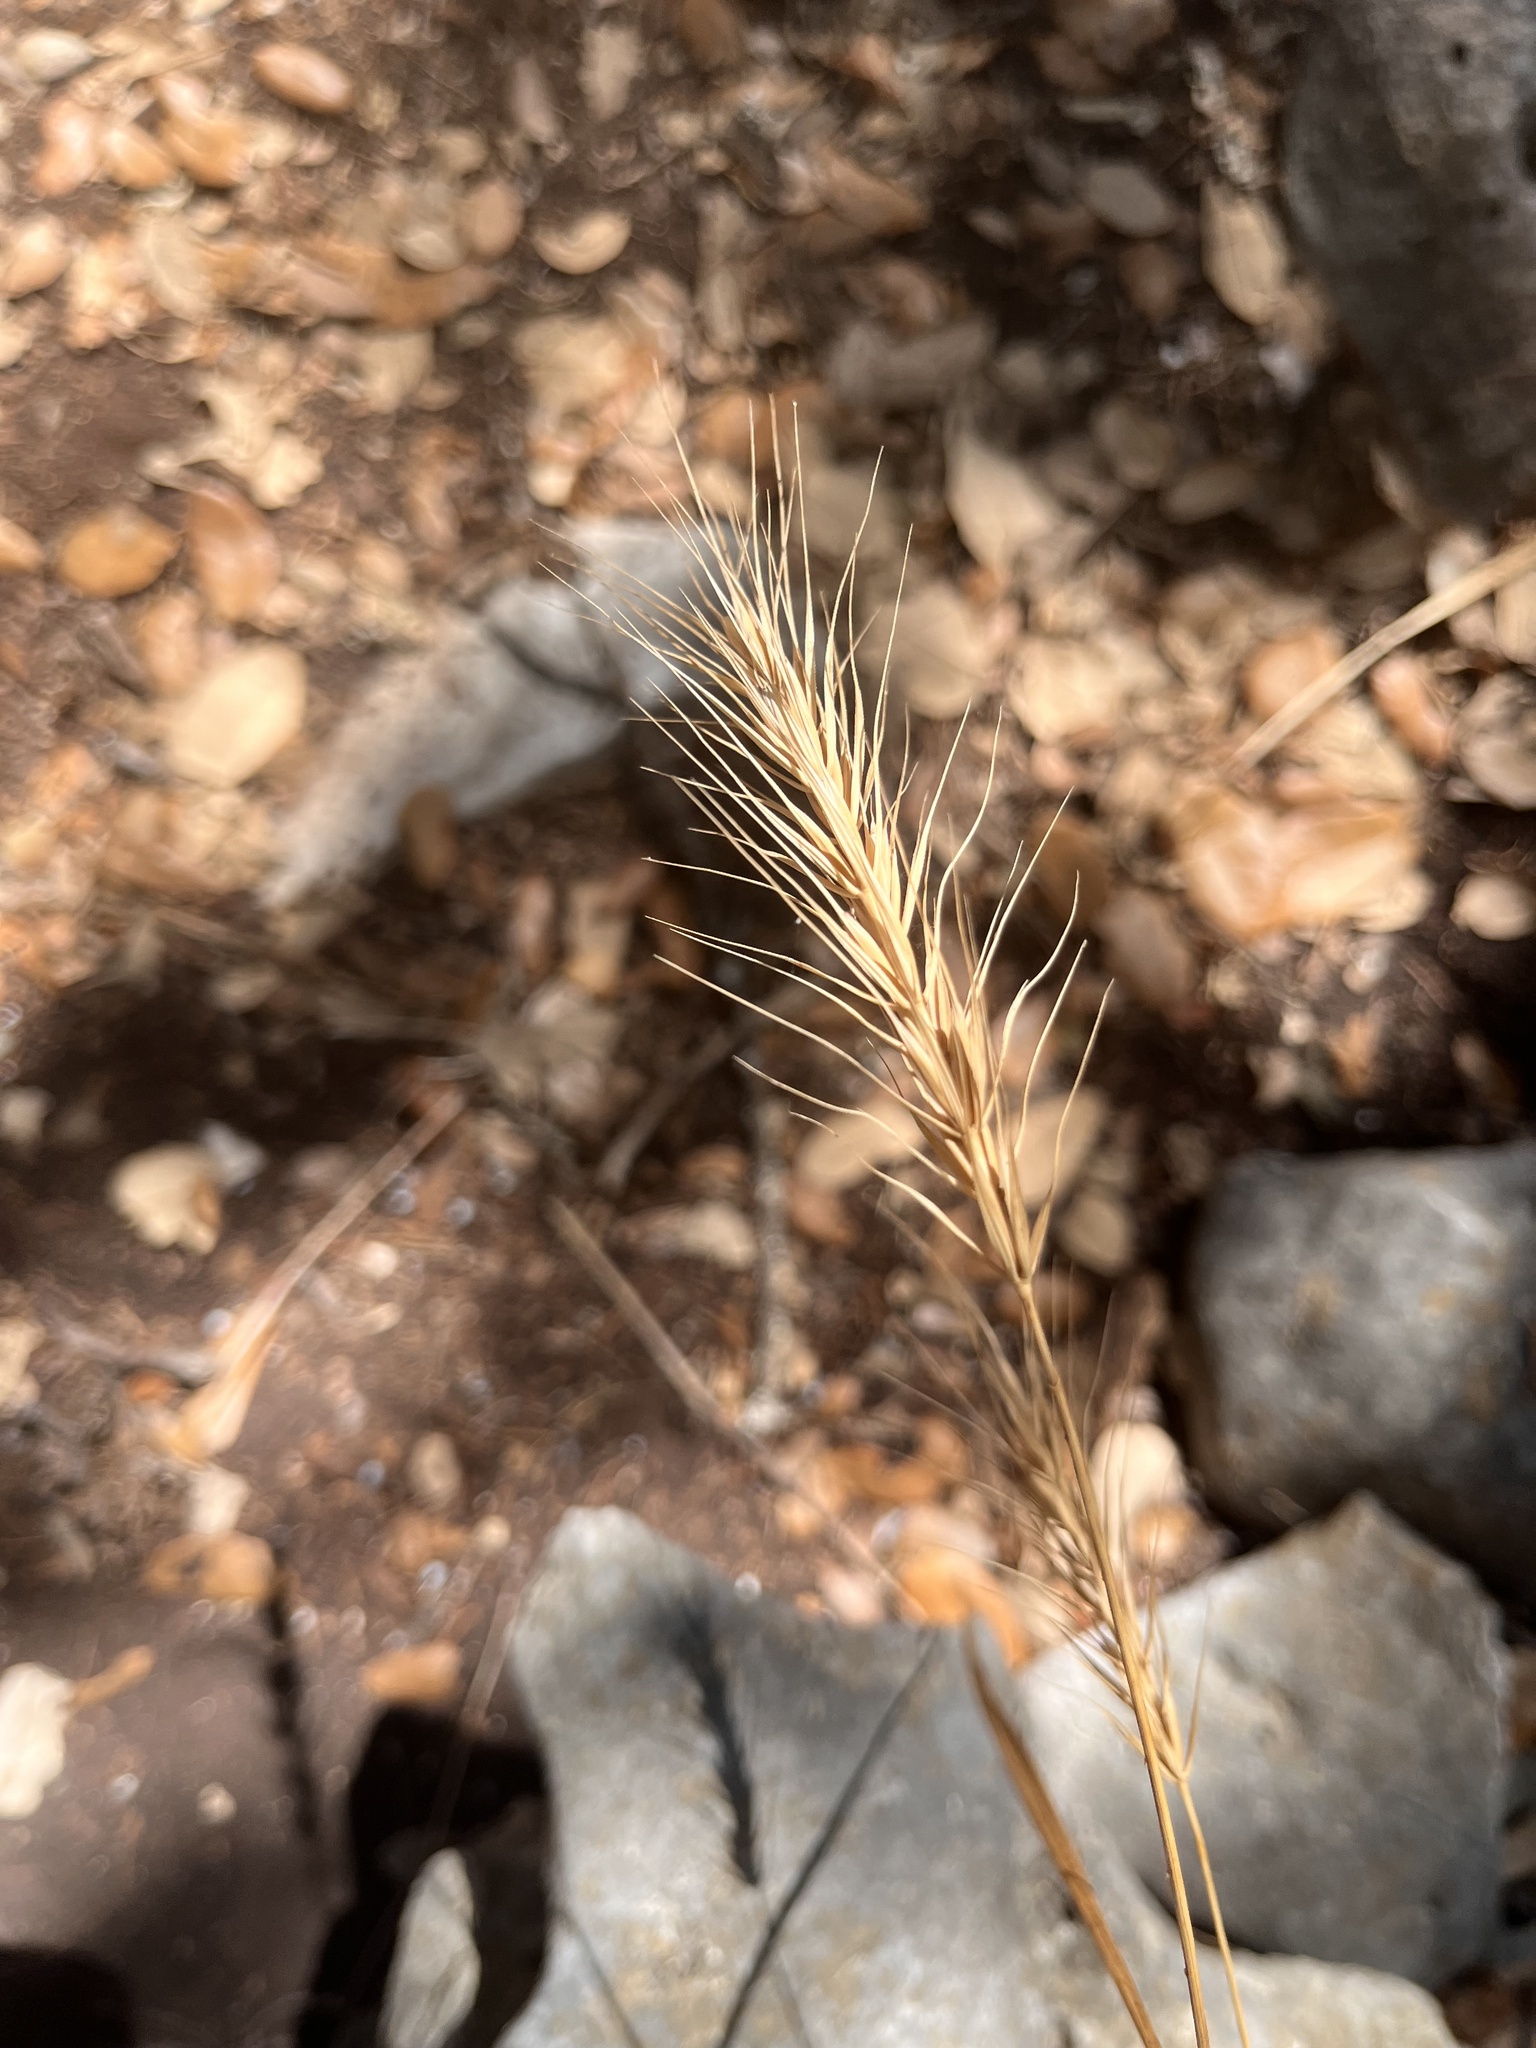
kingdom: Plantae
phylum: Tracheophyta
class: Liliopsida
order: Poales
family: Poaceae
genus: Elymus
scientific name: Elymus macgregorii
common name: Early wild rye
